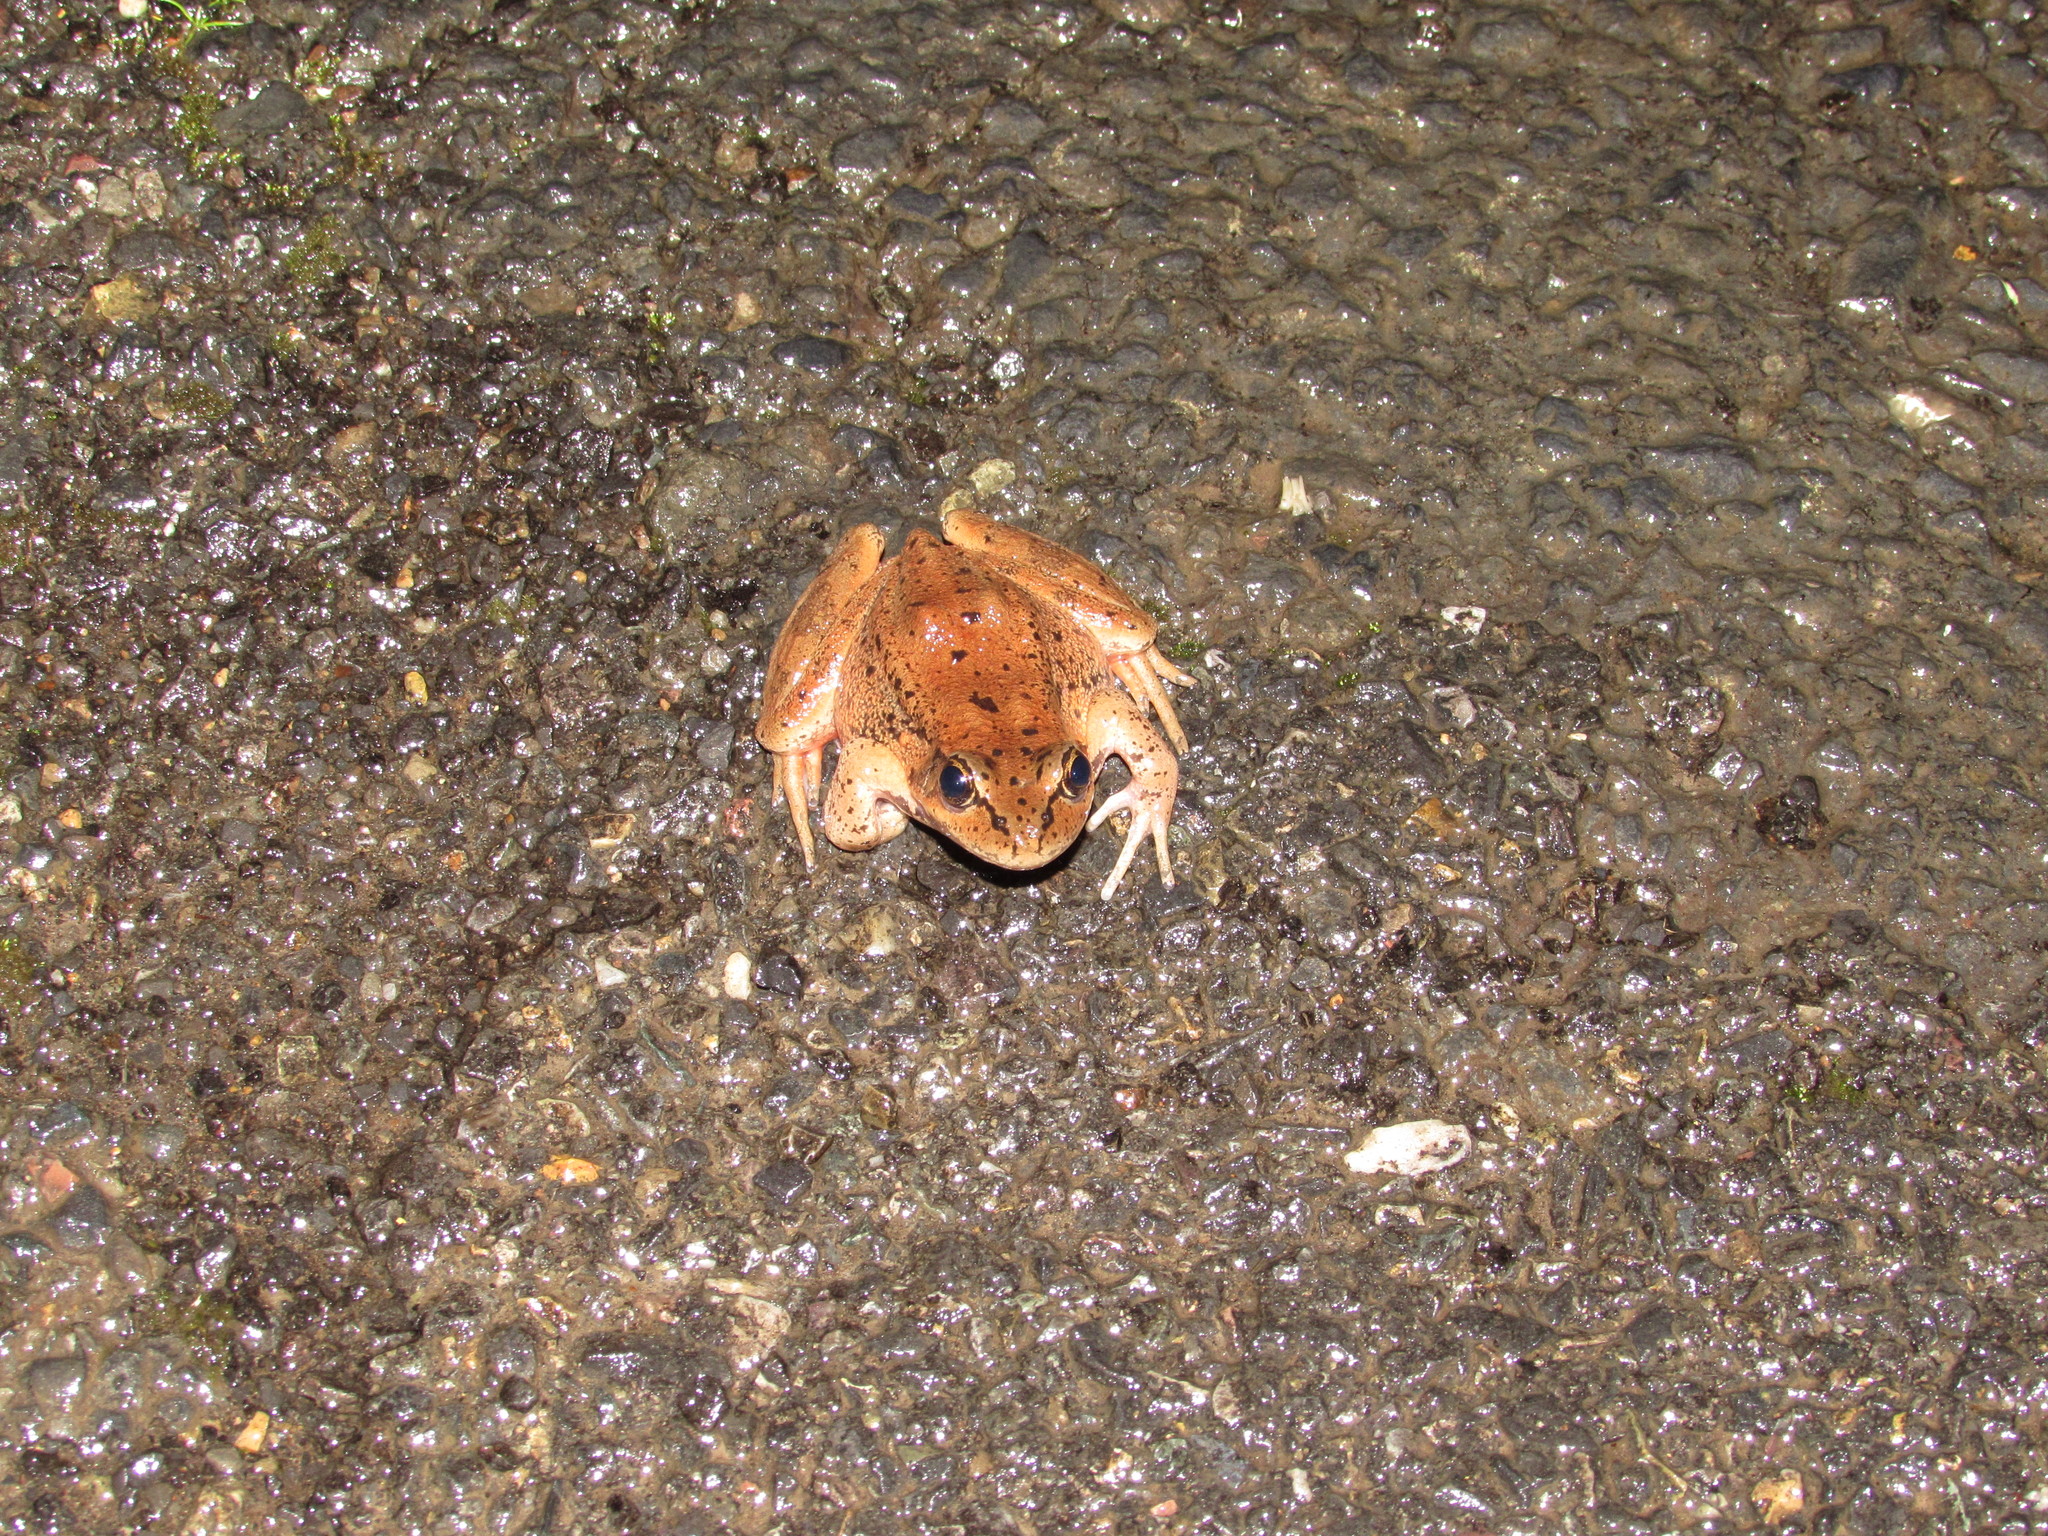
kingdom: Animalia
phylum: Chordata
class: Amphibia
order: Anura
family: Ranidae
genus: Rana
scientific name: Rana aurora
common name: Red-legged frog
